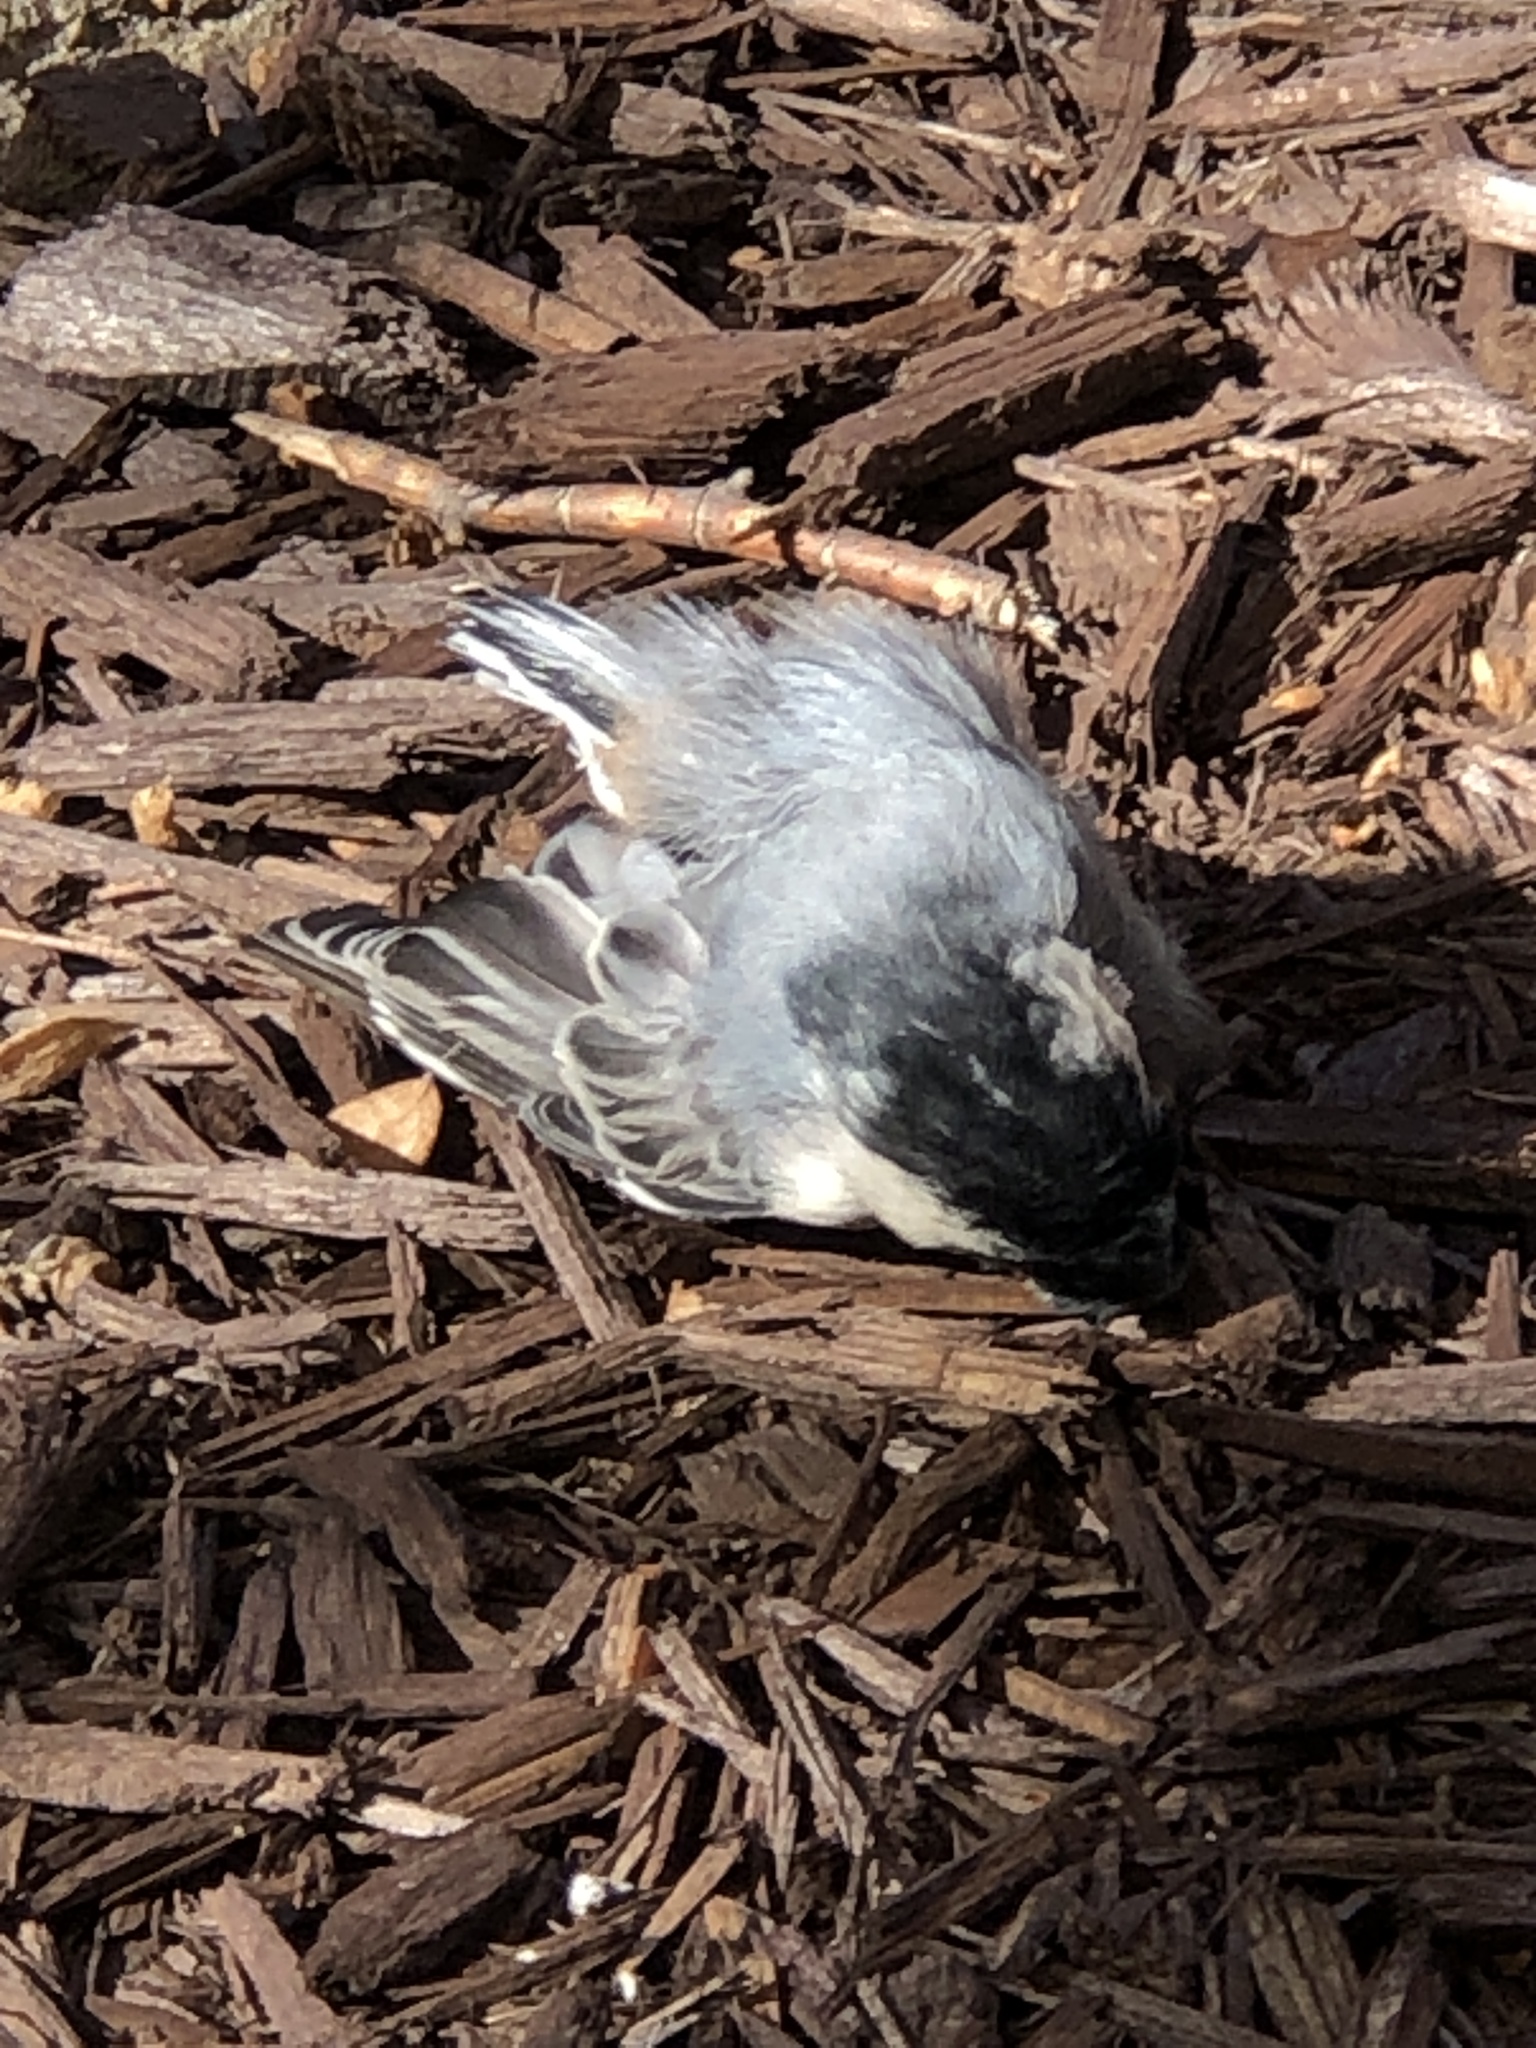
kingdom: Animalia
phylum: Chordata
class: Aves
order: Passeriformes
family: Sittidae
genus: Sitta
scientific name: Sitta carolinensis
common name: White-breasted nuthatch
